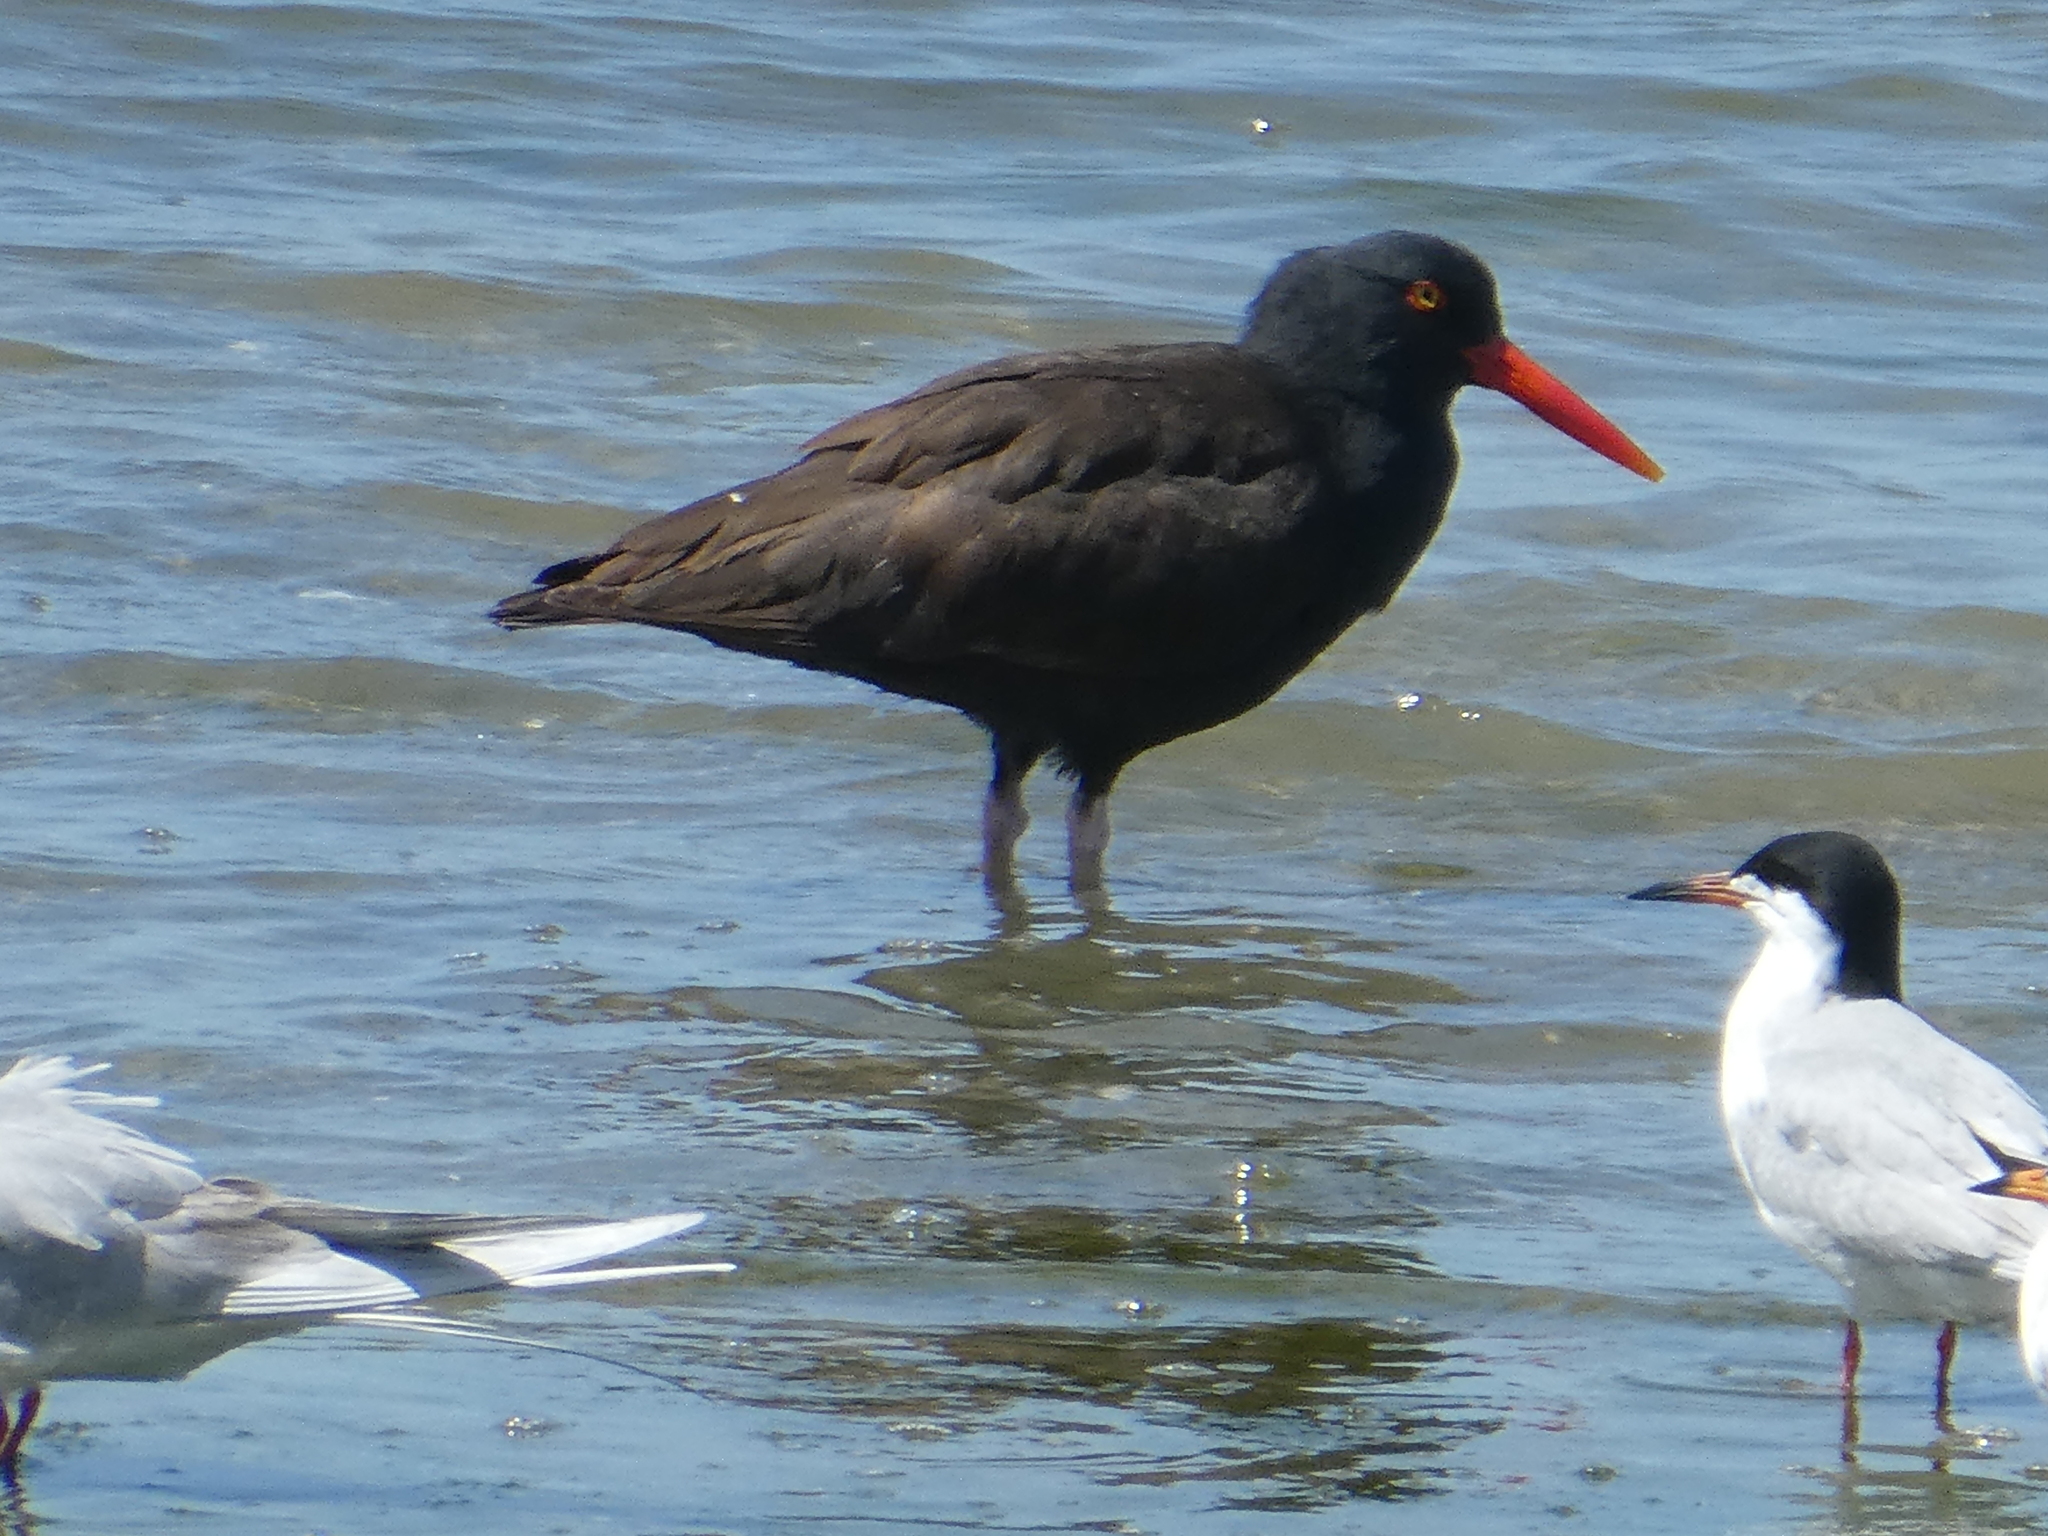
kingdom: Animalia
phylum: Chordata
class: Aves
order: Charadriiformes
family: Haematopodidae
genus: Haematopus
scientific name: Haematopus bachmani
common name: Black oystercatcher
